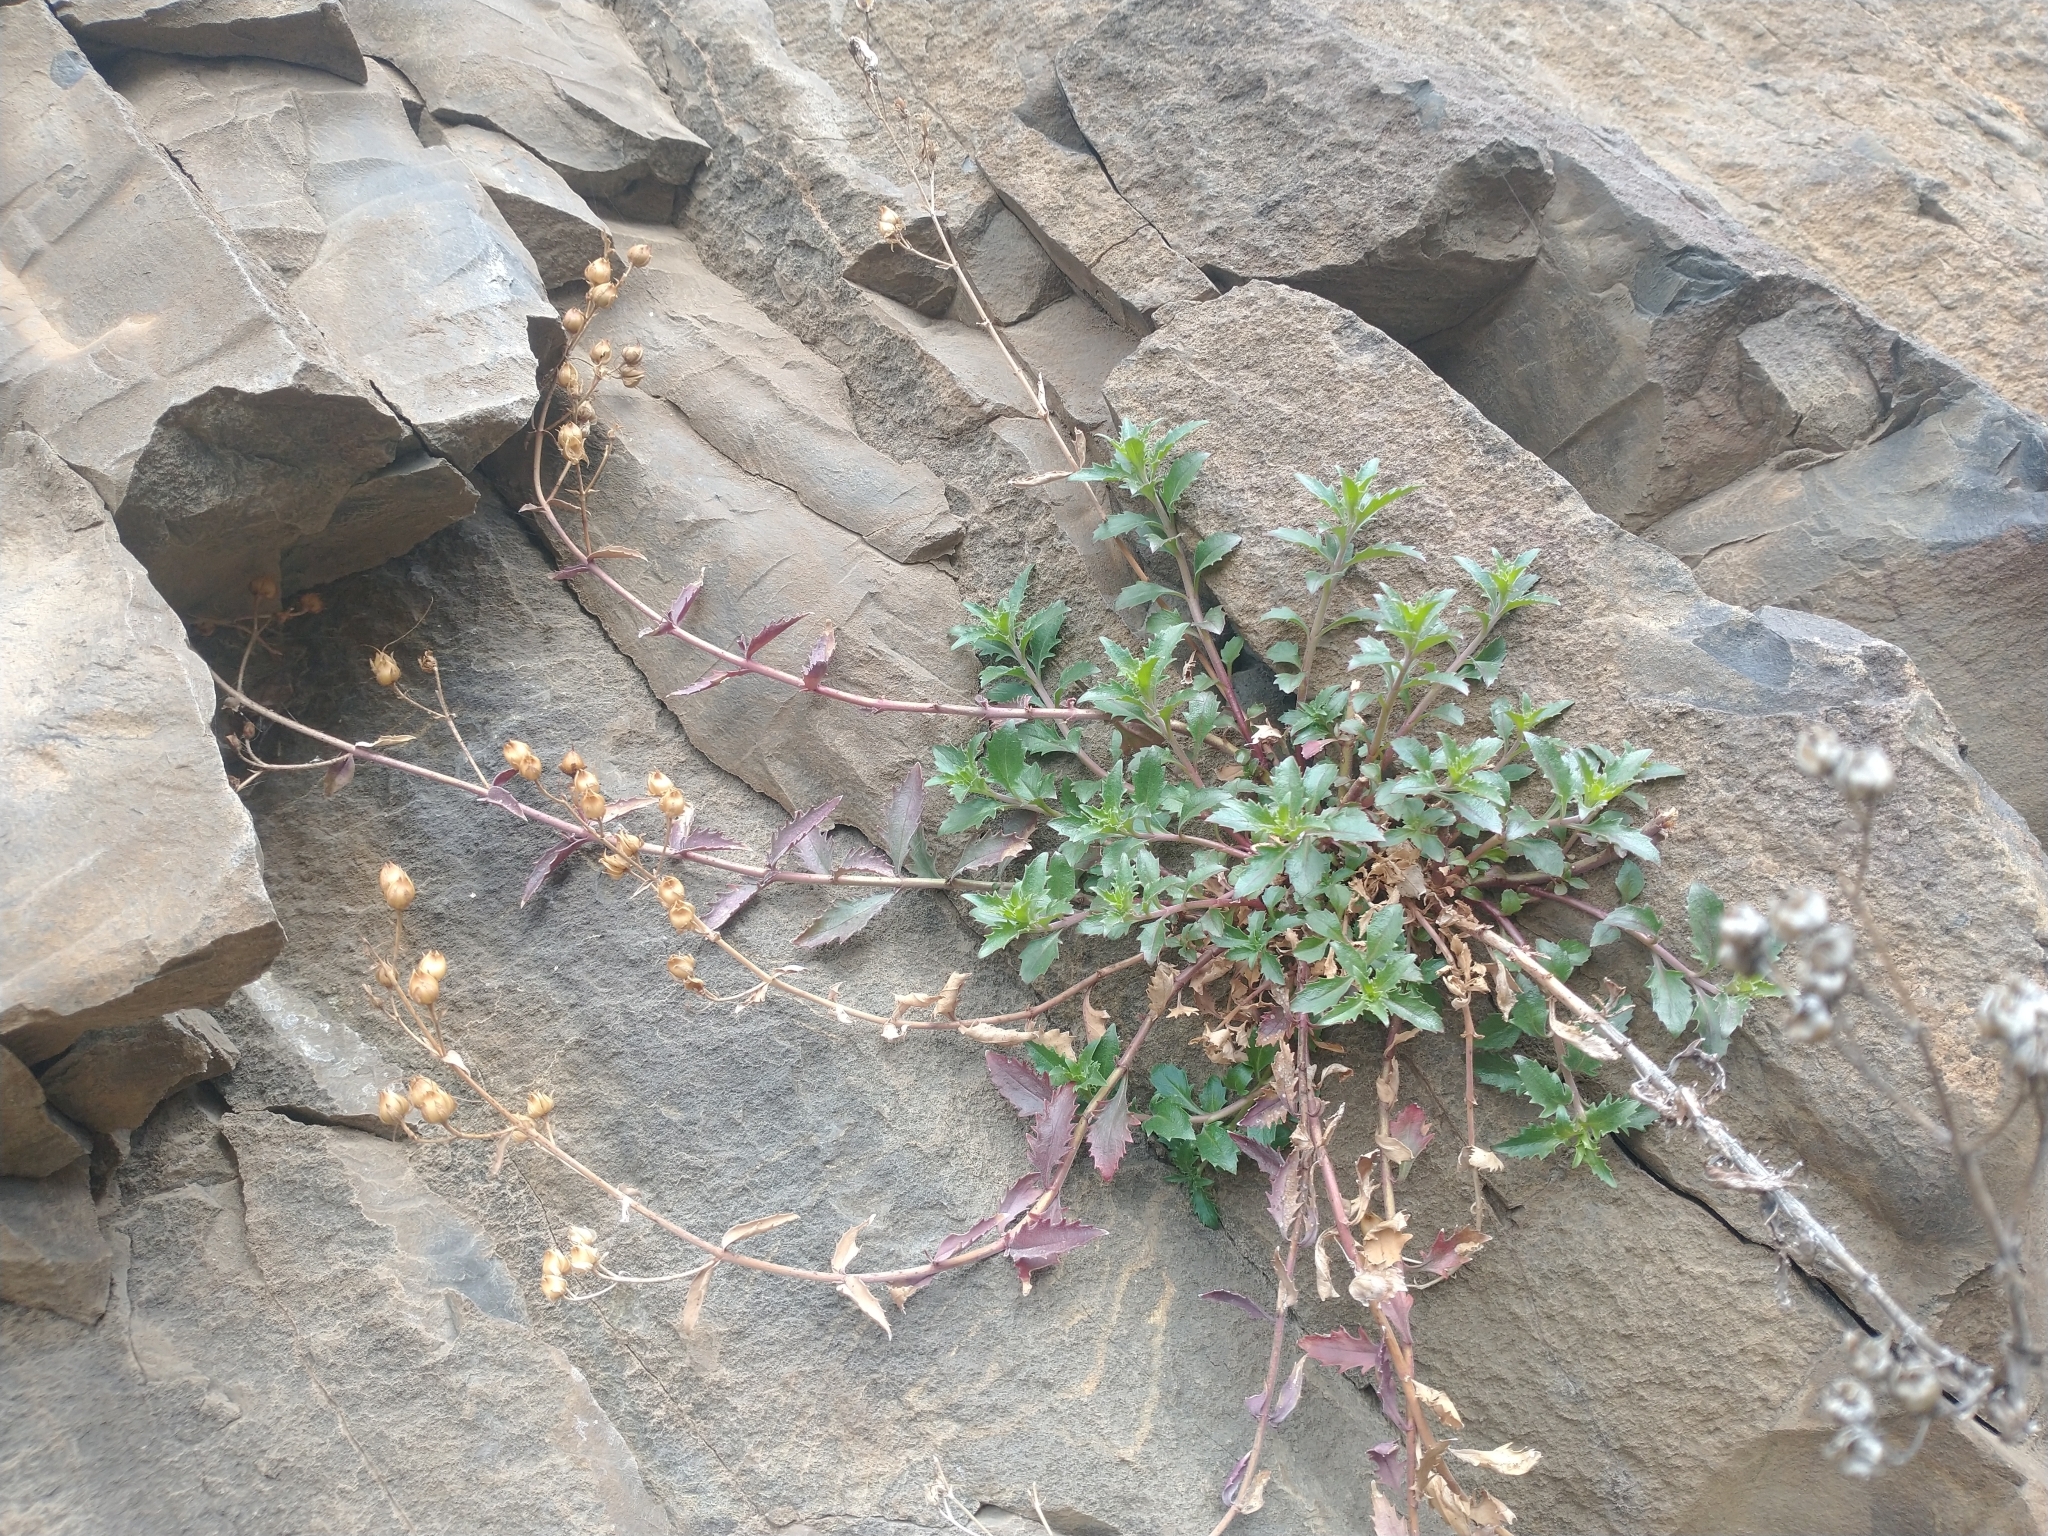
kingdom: Plantae
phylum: Tracheophyta
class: Magnoliopsida
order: Lamiales
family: Plantaginaceae
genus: Penstemon
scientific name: Penstemon richardsonii
